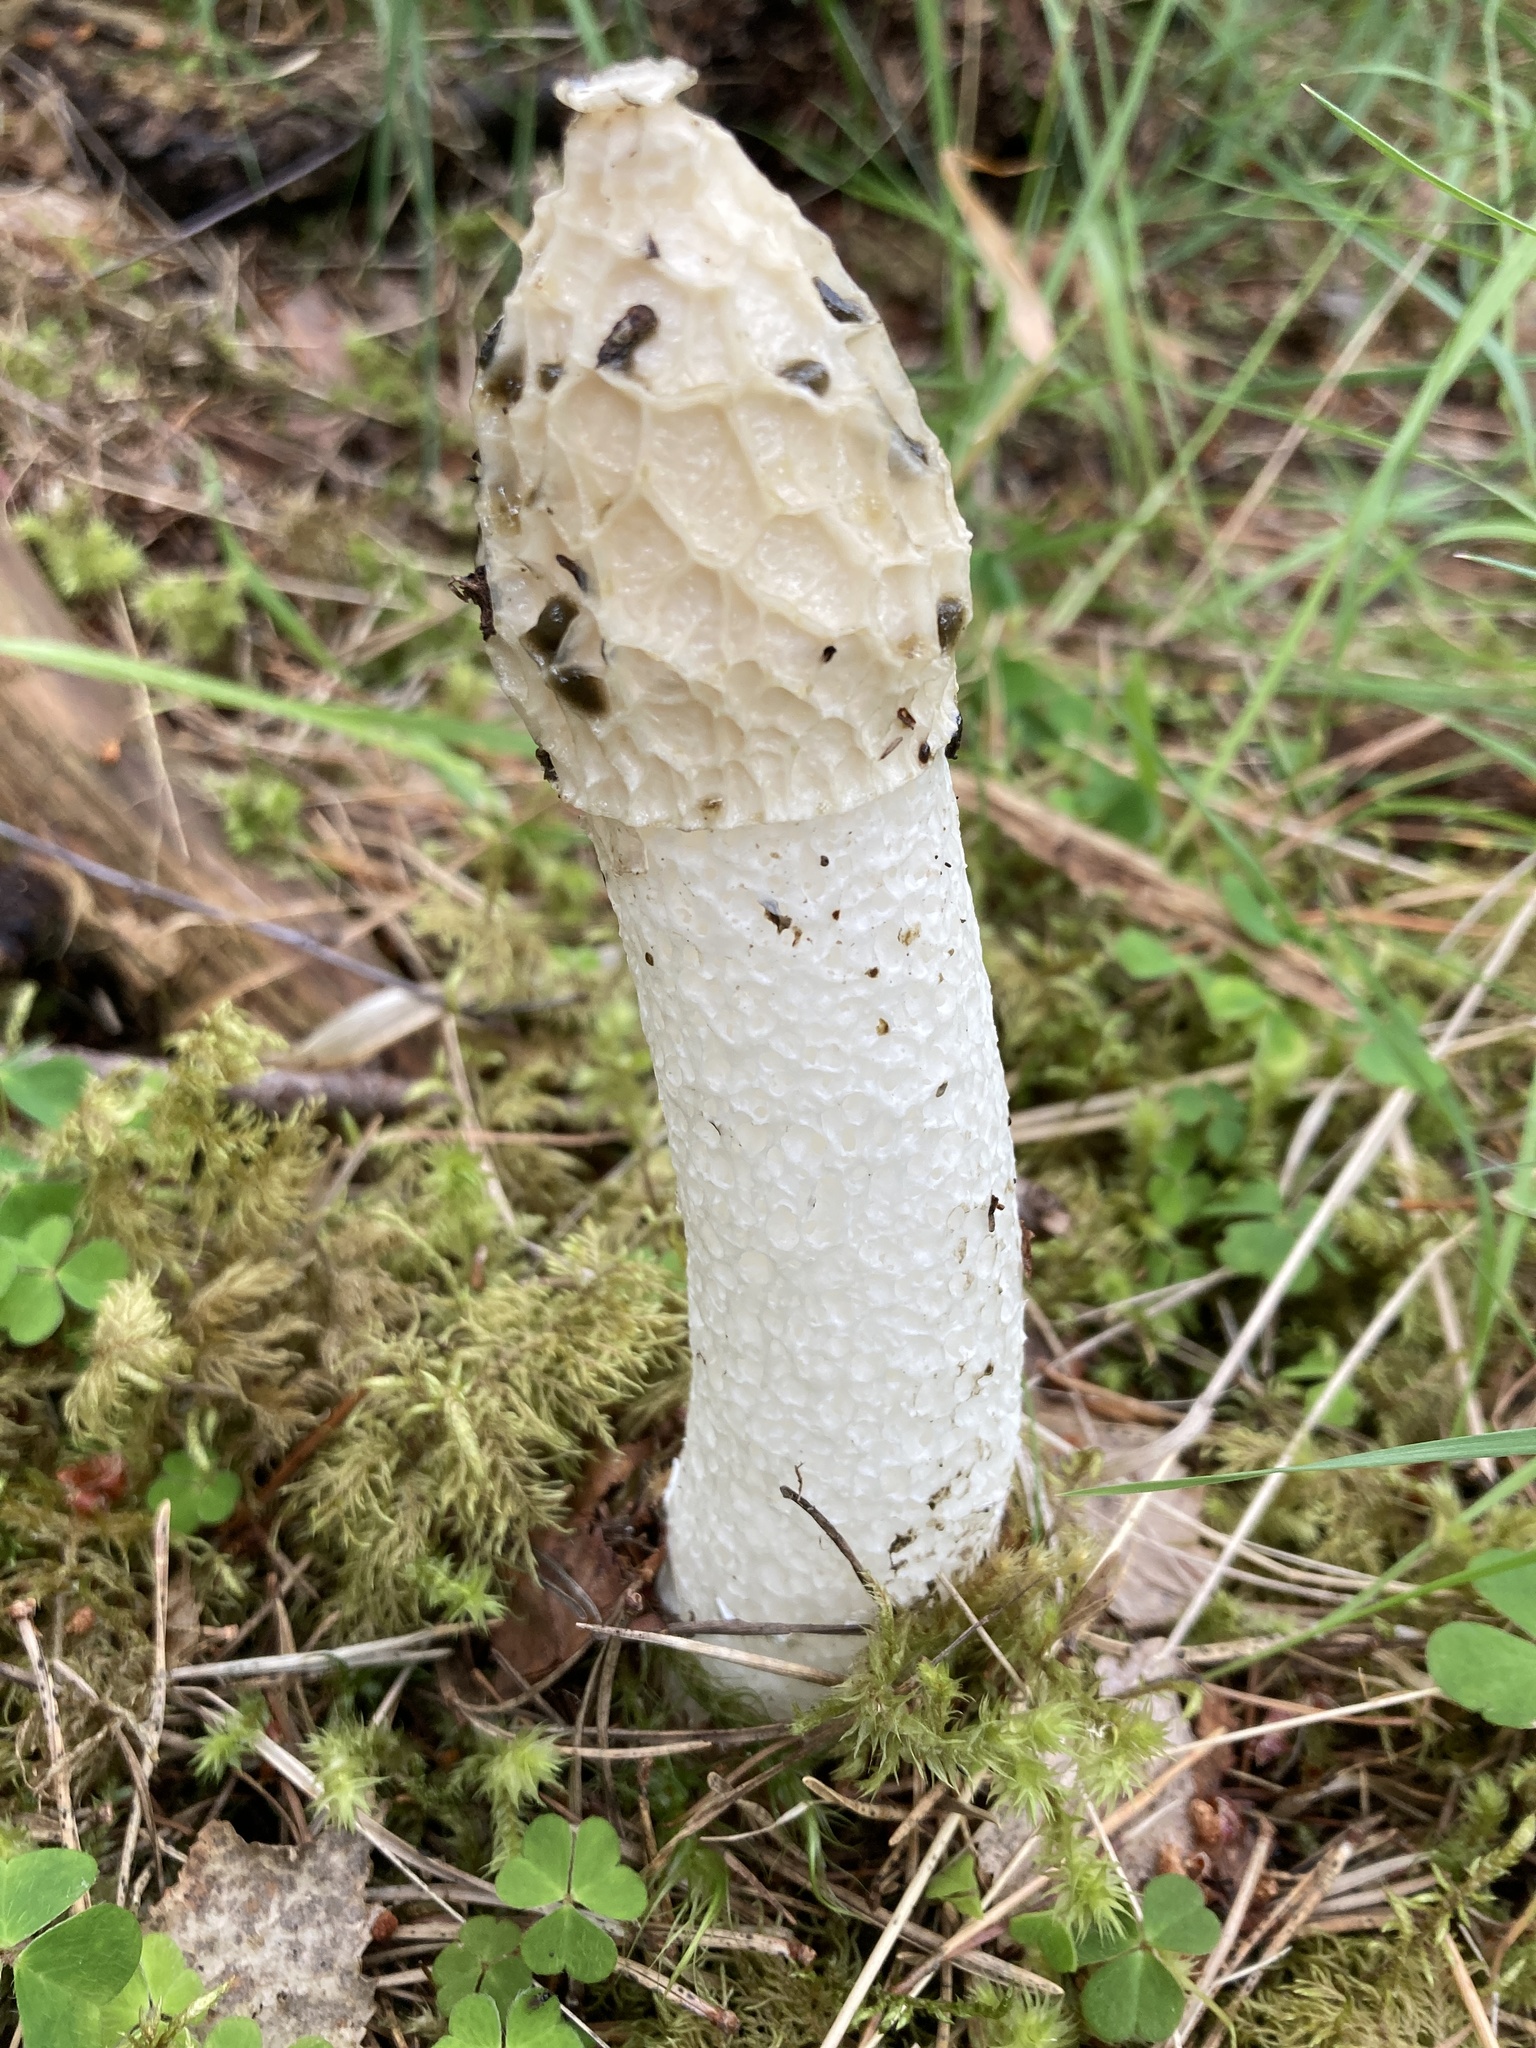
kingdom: Fungi
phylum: Basidiomycota
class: Agaricomycetes
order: Phallales
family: Phallaceae
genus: Phallus
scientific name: Phallus impudicus
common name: Common stinkhorn
